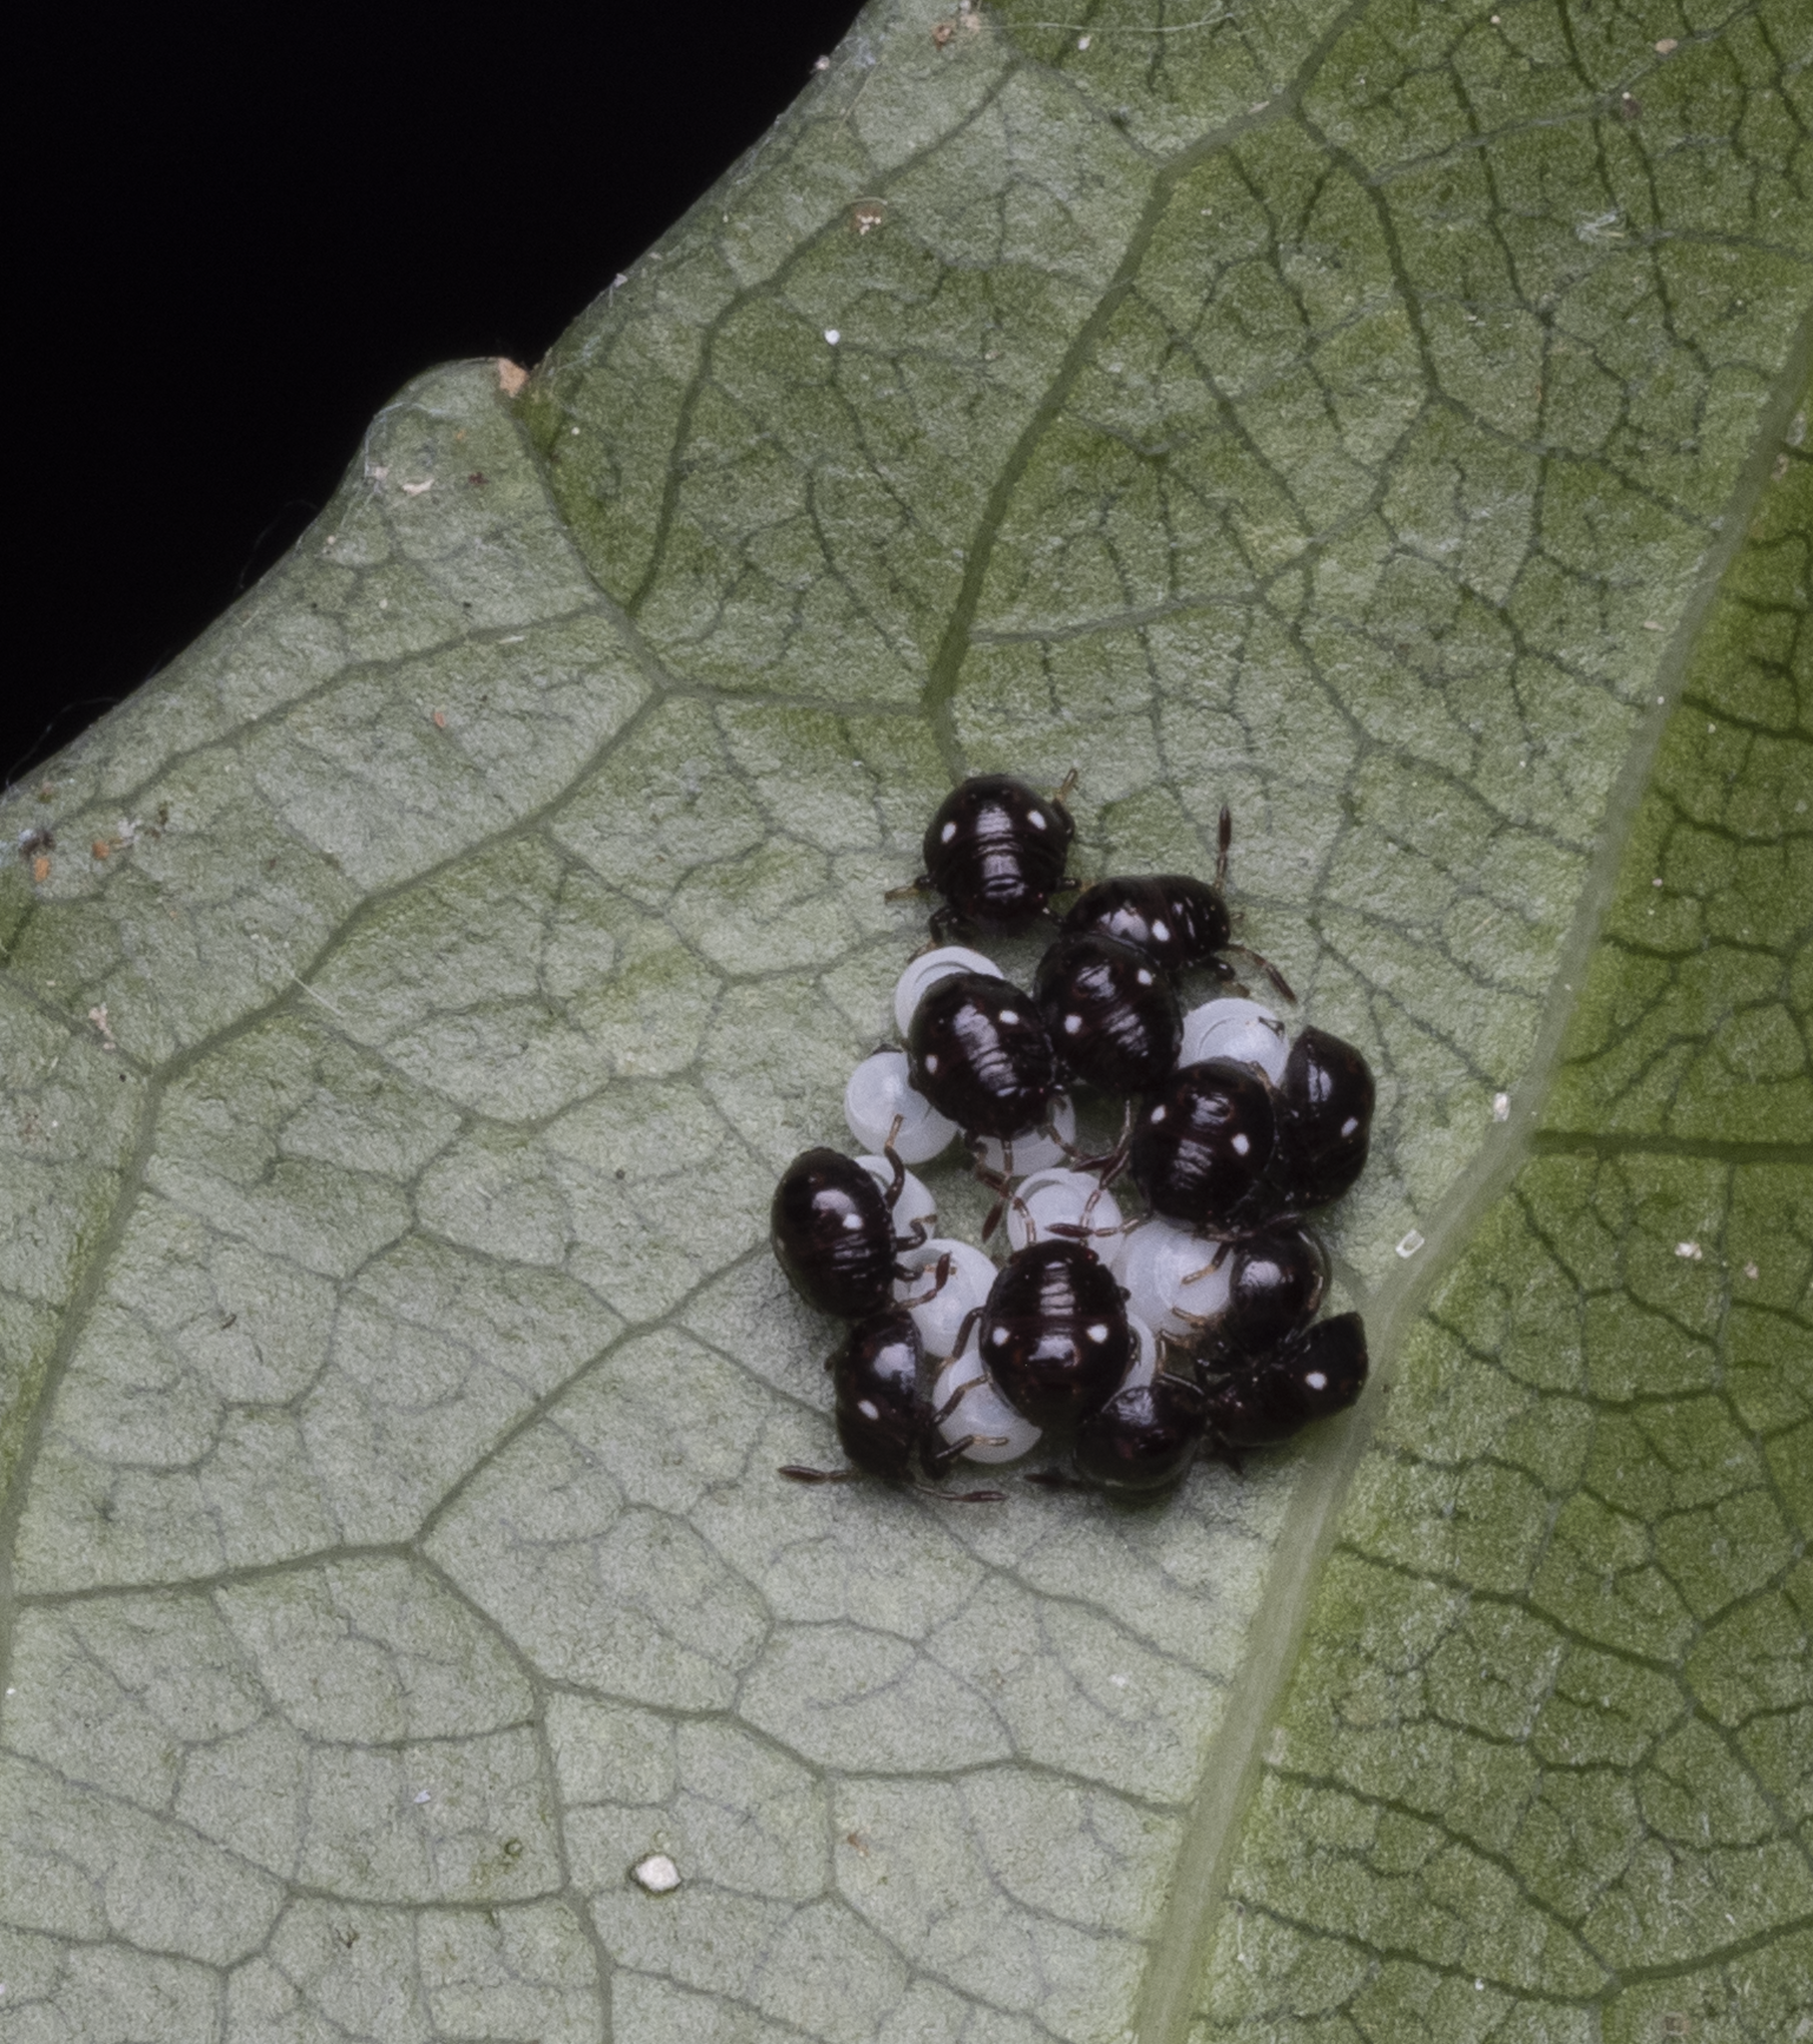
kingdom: Animalia
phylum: Arthropoda
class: Insecta
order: Hemiptera
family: Pentatomidae
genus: Monteithiella
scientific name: Monteithiella
